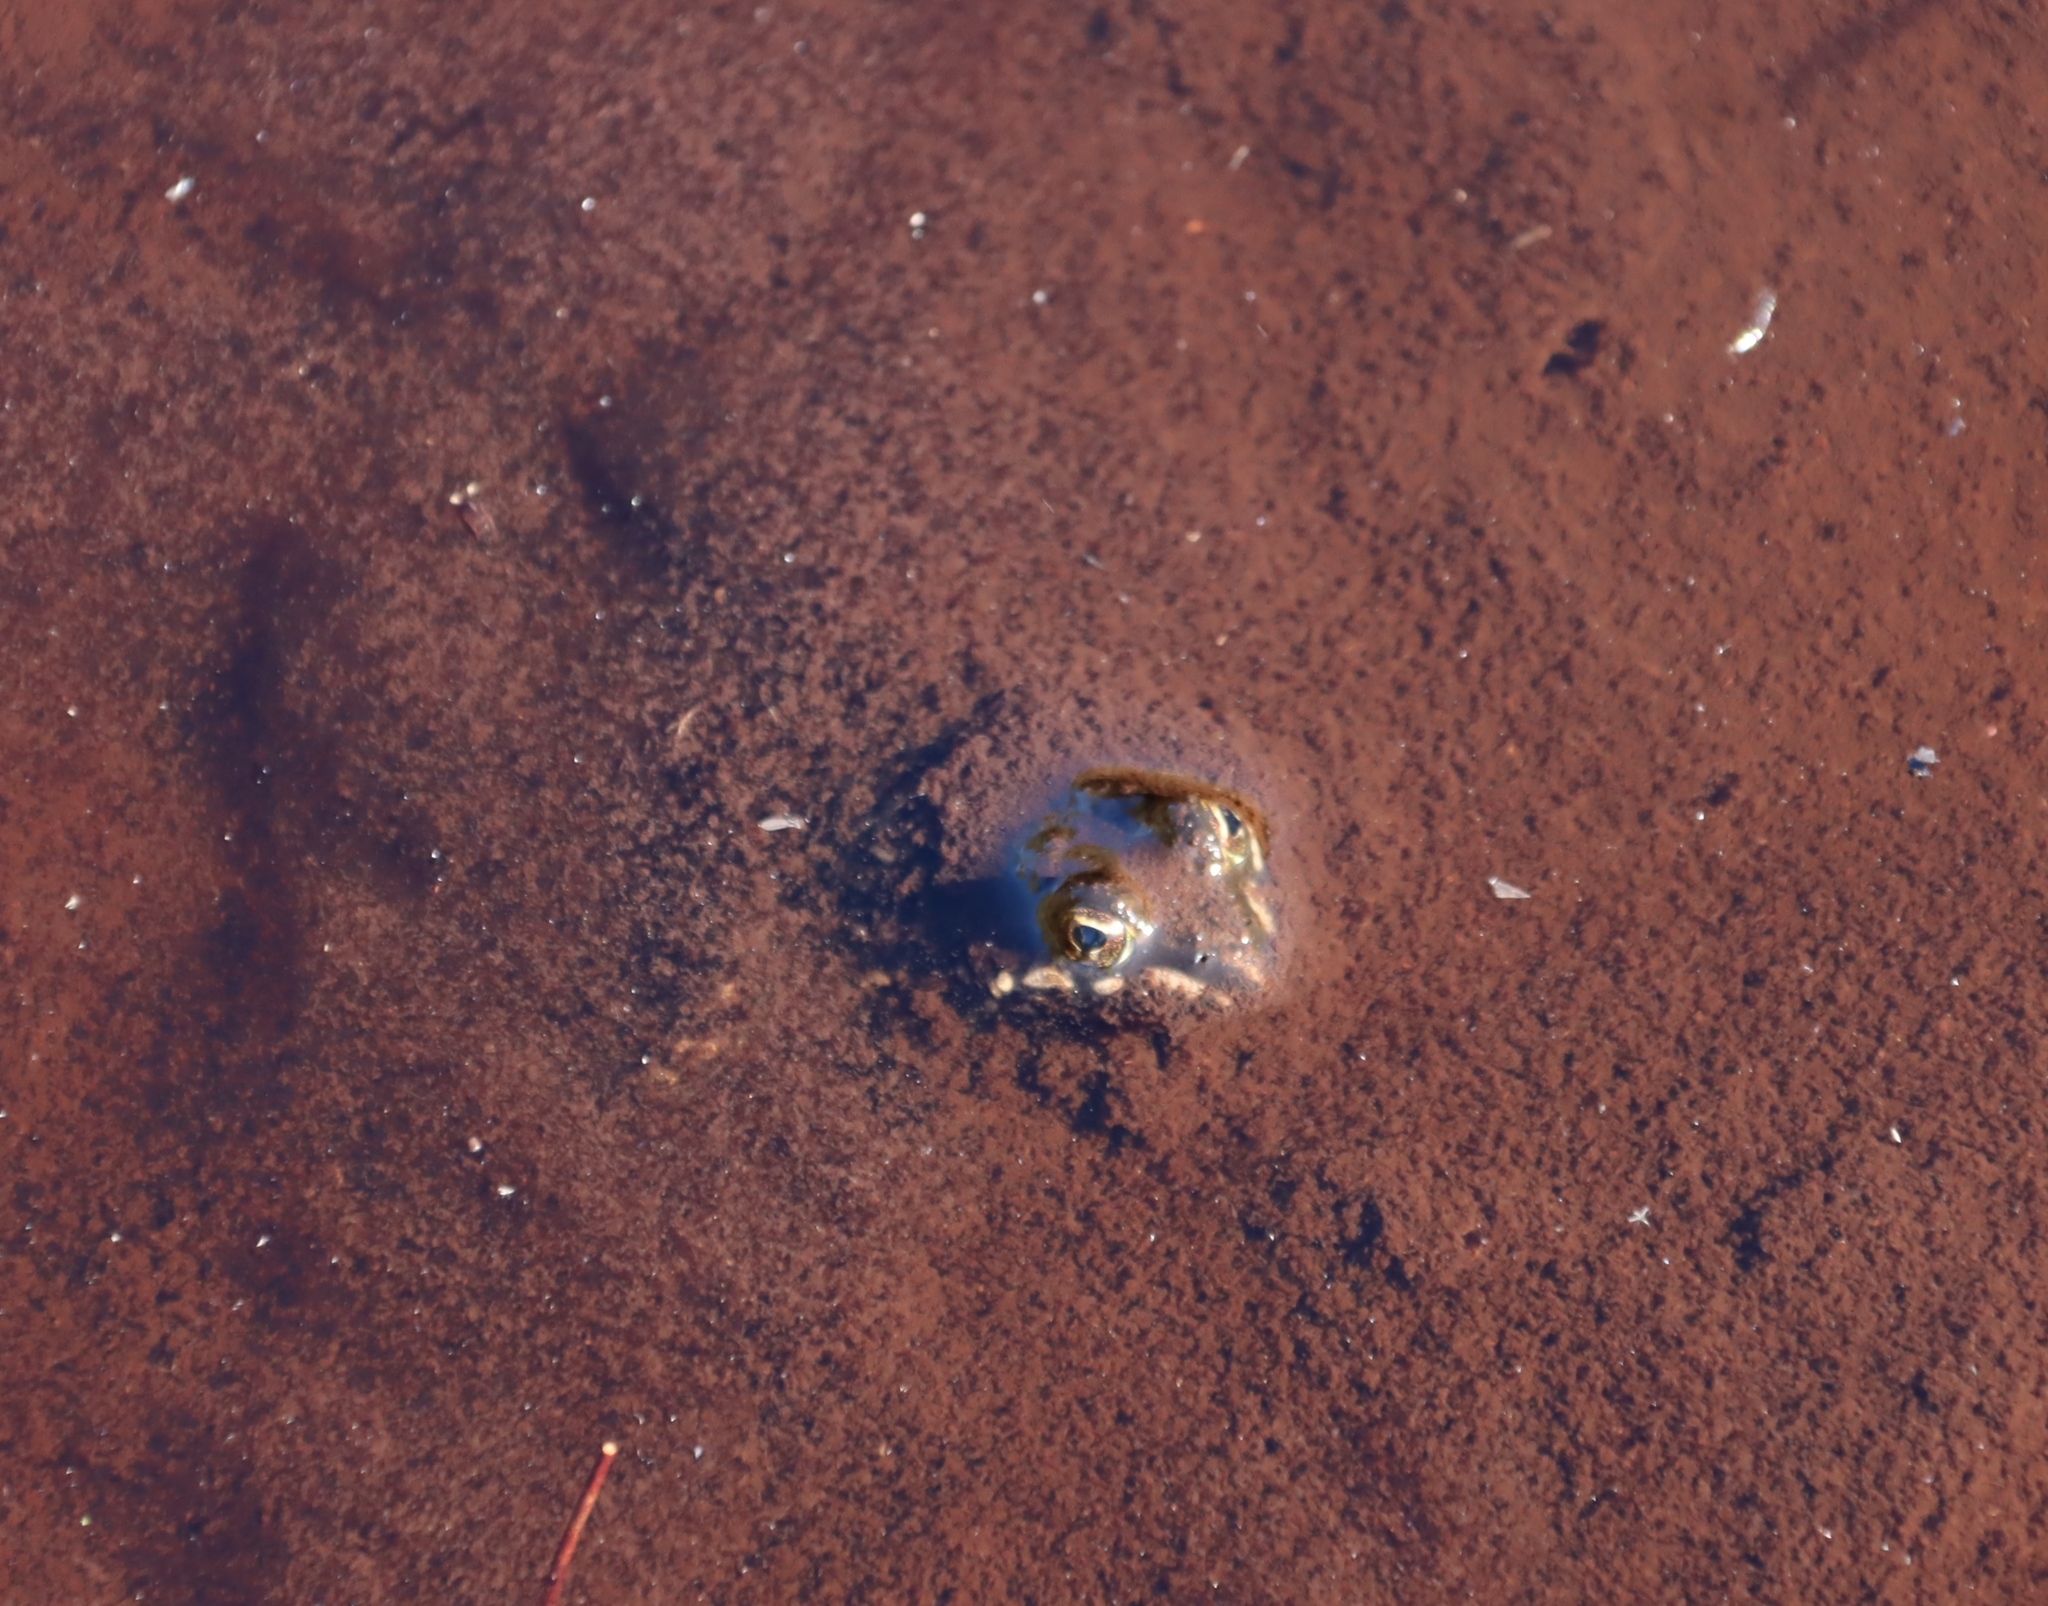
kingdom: Animalia
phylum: Chordata
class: Amphibia
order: Anura
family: Pyxicephalidae
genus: Amietia
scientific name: Amietia fuscigula
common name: Cape rana
